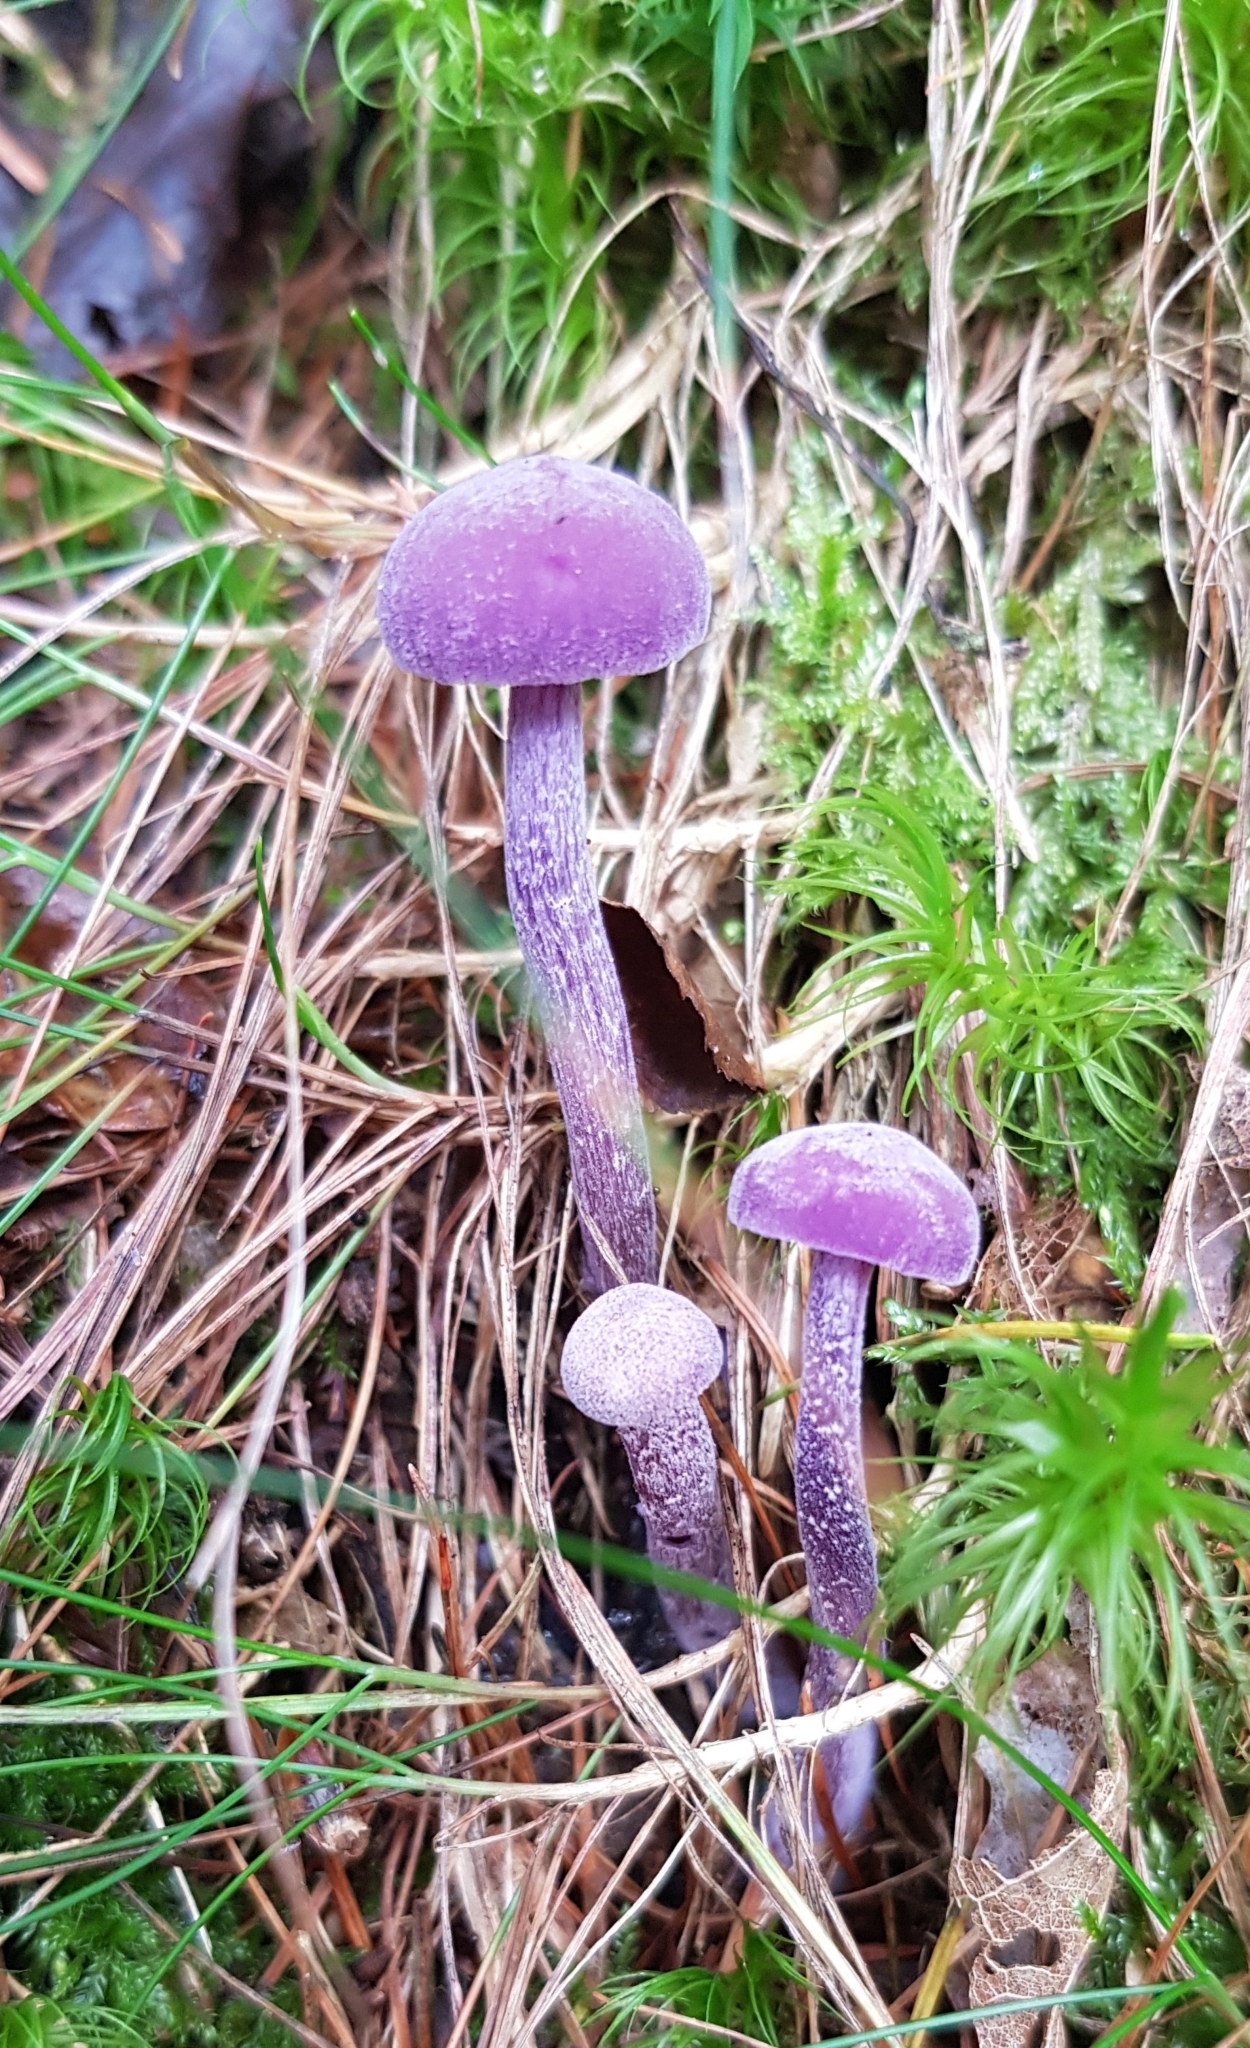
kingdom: Fungi
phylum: Basidiomycota
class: Agaricomycetes
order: Agaricales
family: Hydnangiaceae
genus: Laccaria
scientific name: Laccaria amethystina
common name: Amethyst deceiver
